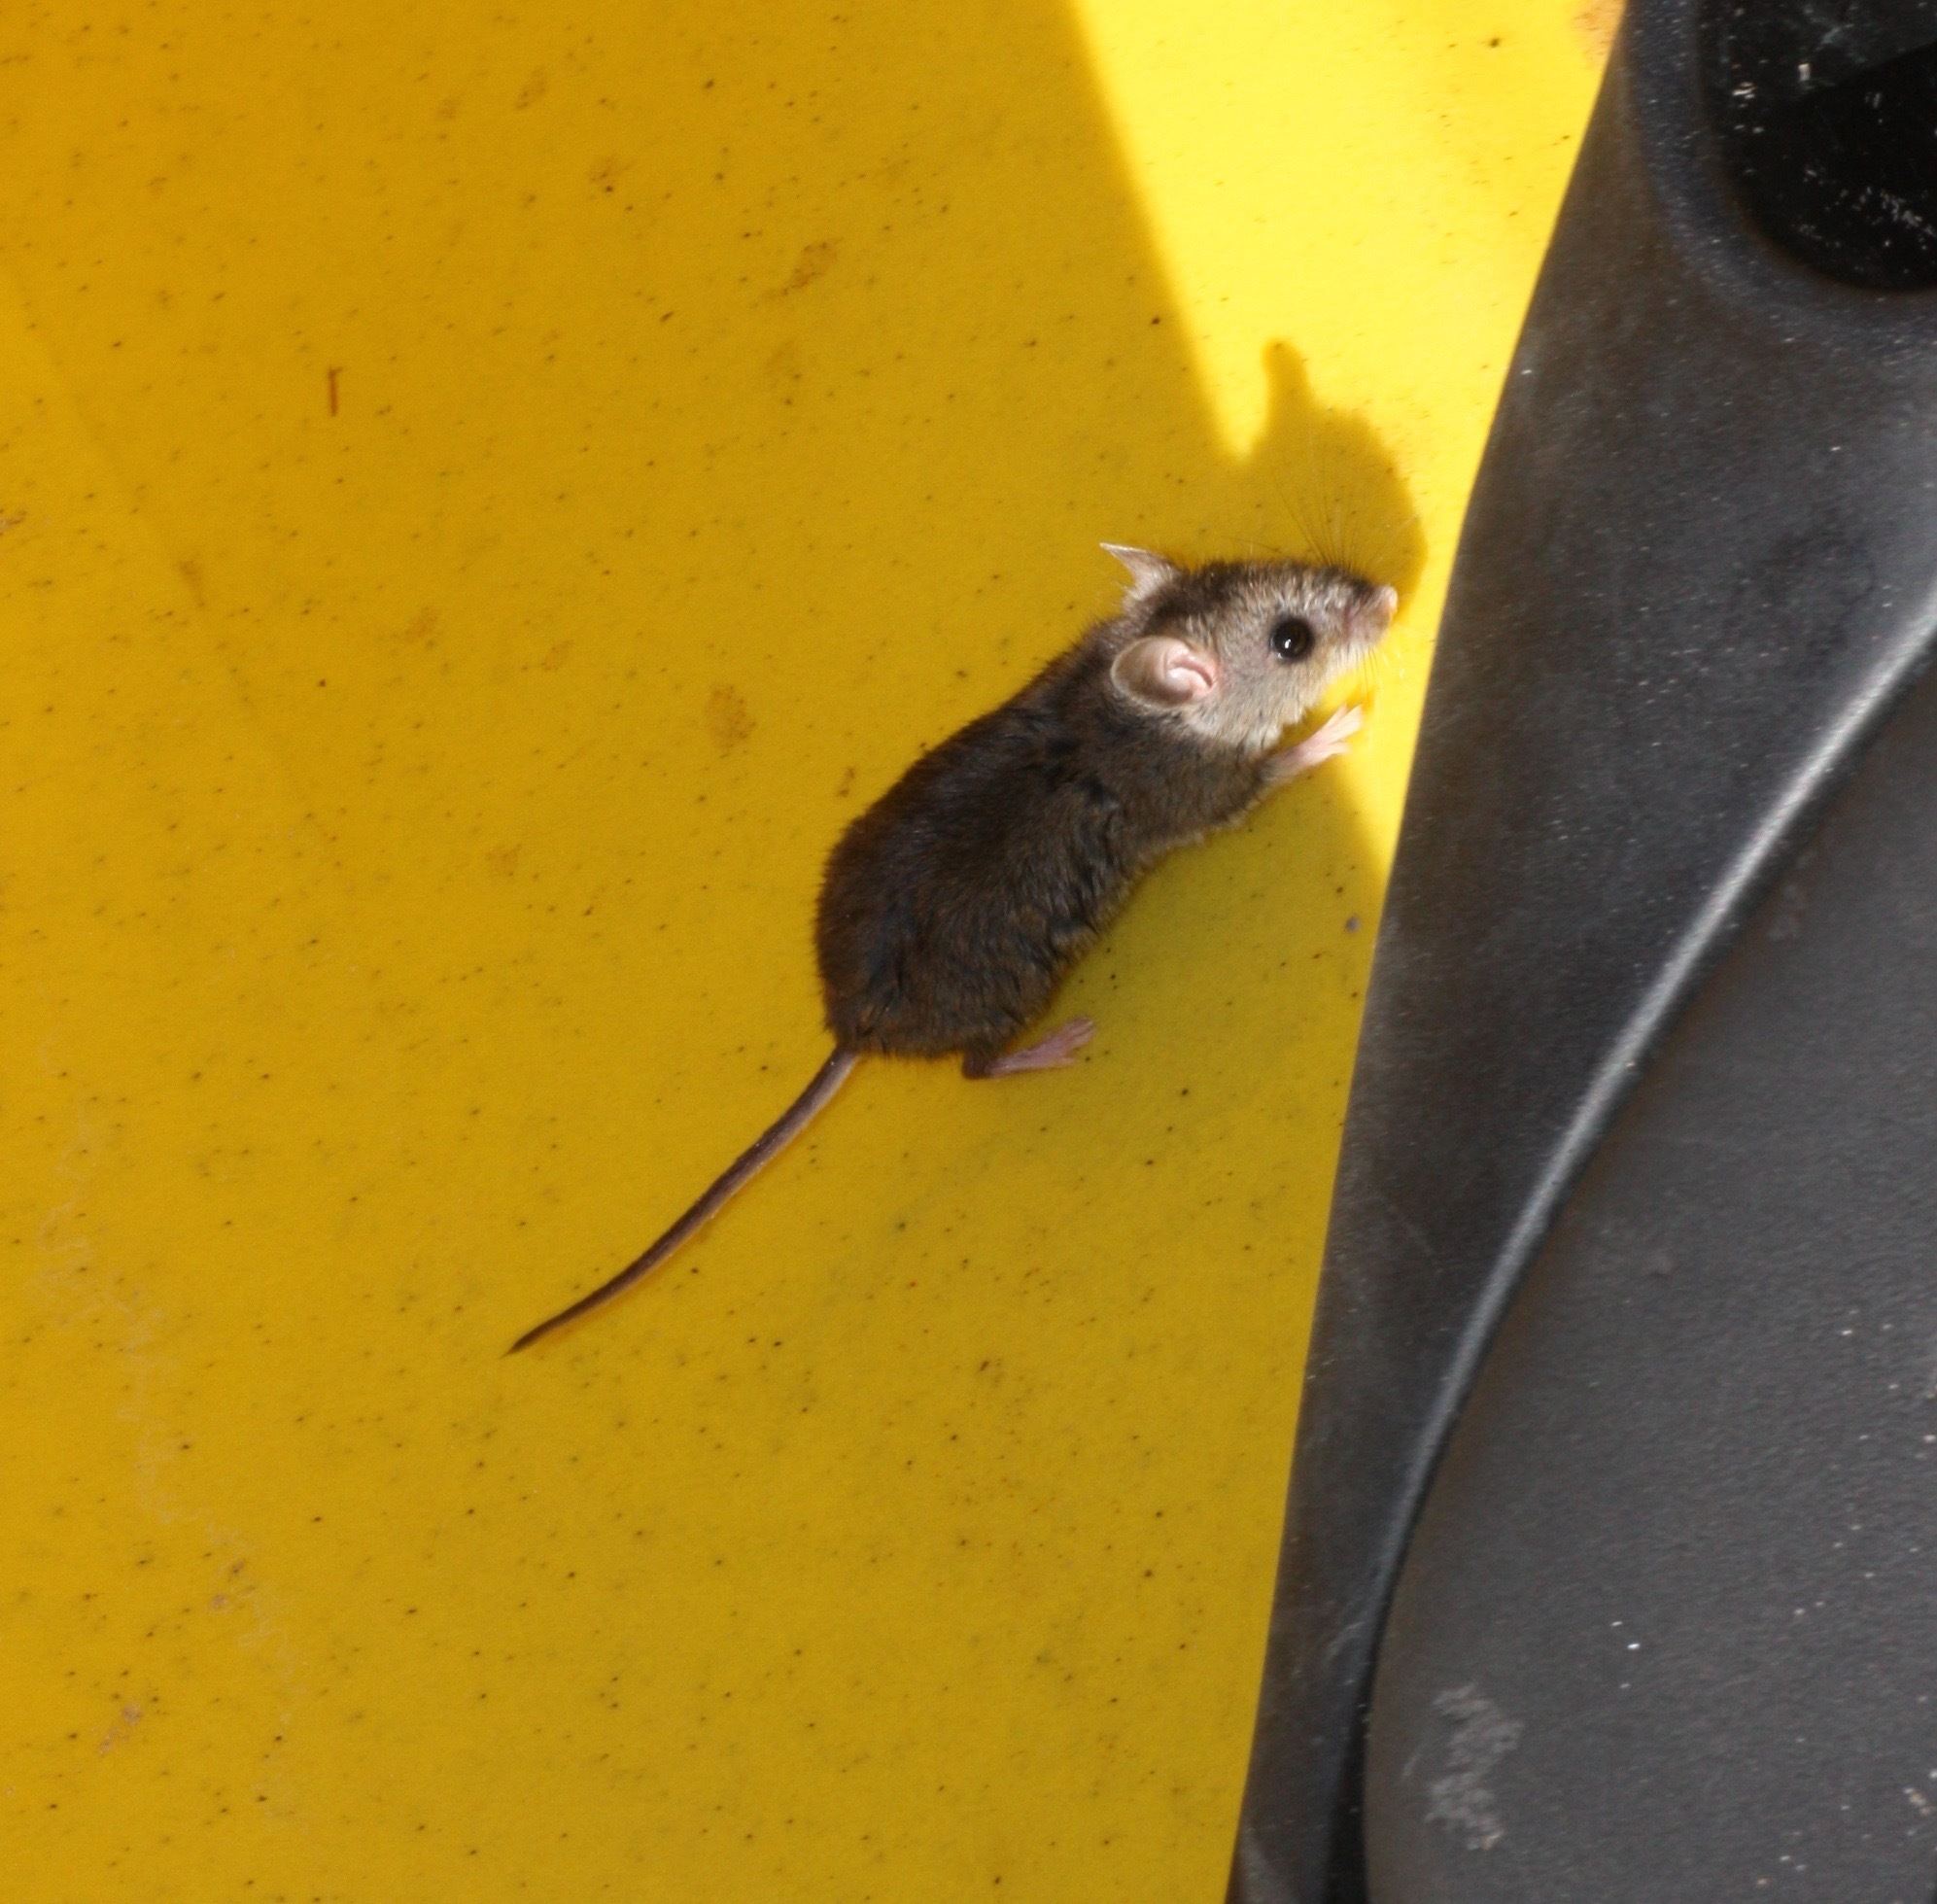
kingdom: Animalia
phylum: Chordata
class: Mammalia
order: Rodentia
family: Cricetidae
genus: Peromyscus
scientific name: Peromyscus maniculatus
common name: Deer mouse
